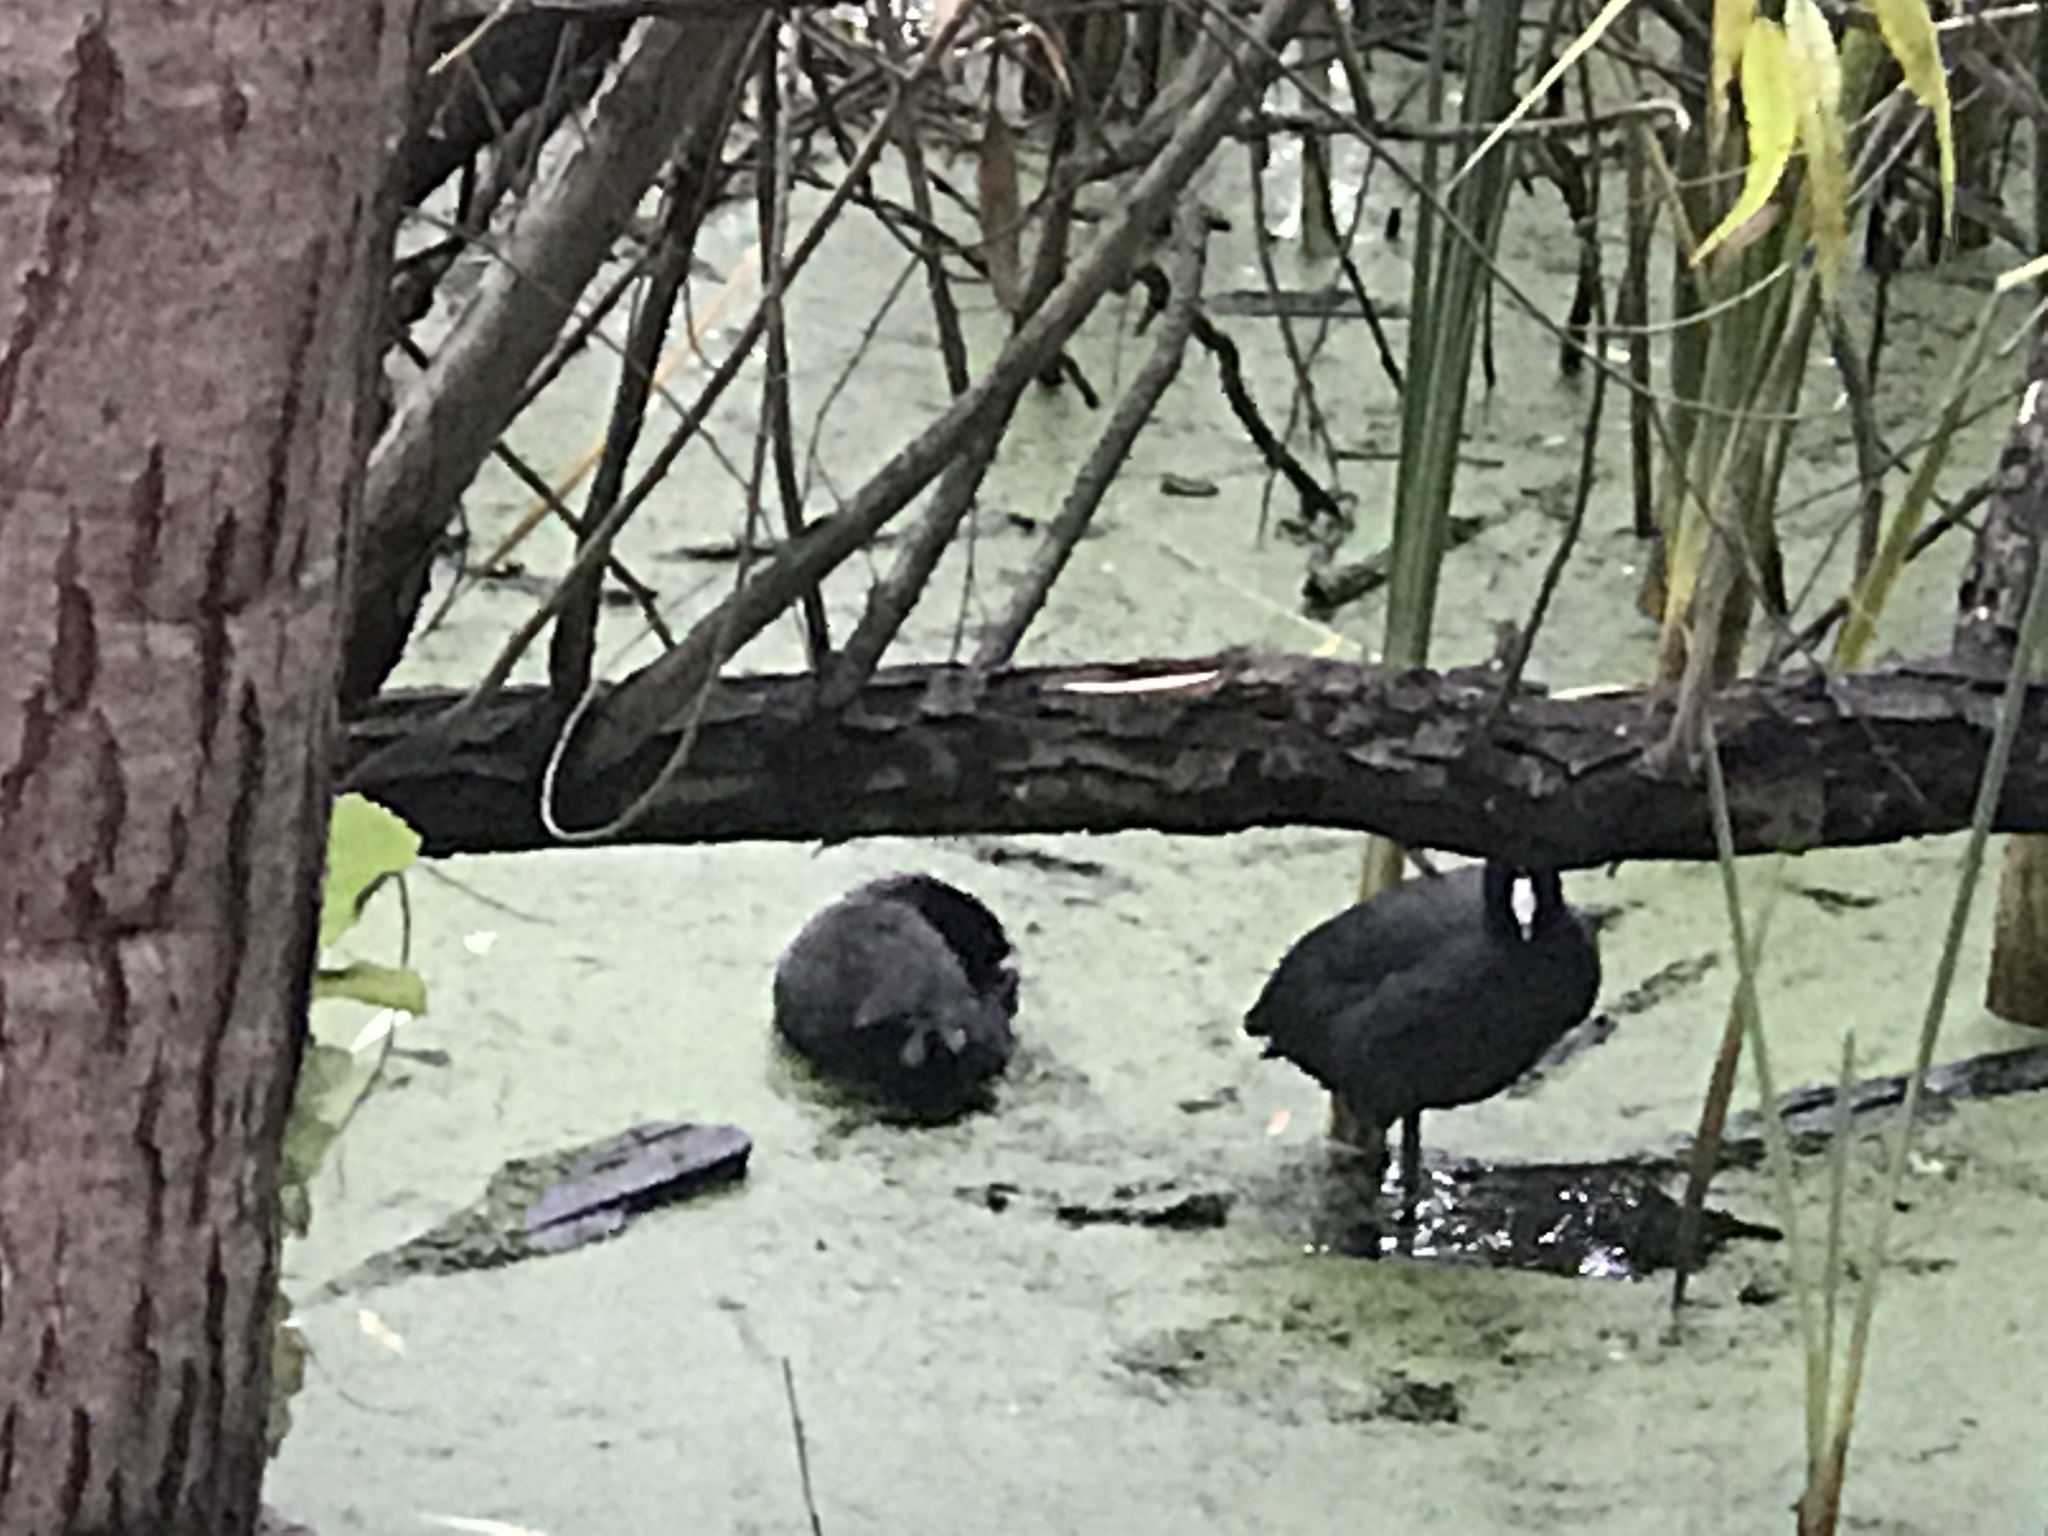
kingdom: Animalia
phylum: Chordata
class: Aves
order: Gruiformes
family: Rallidae
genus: Fulica
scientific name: Fulica americana
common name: American coot
